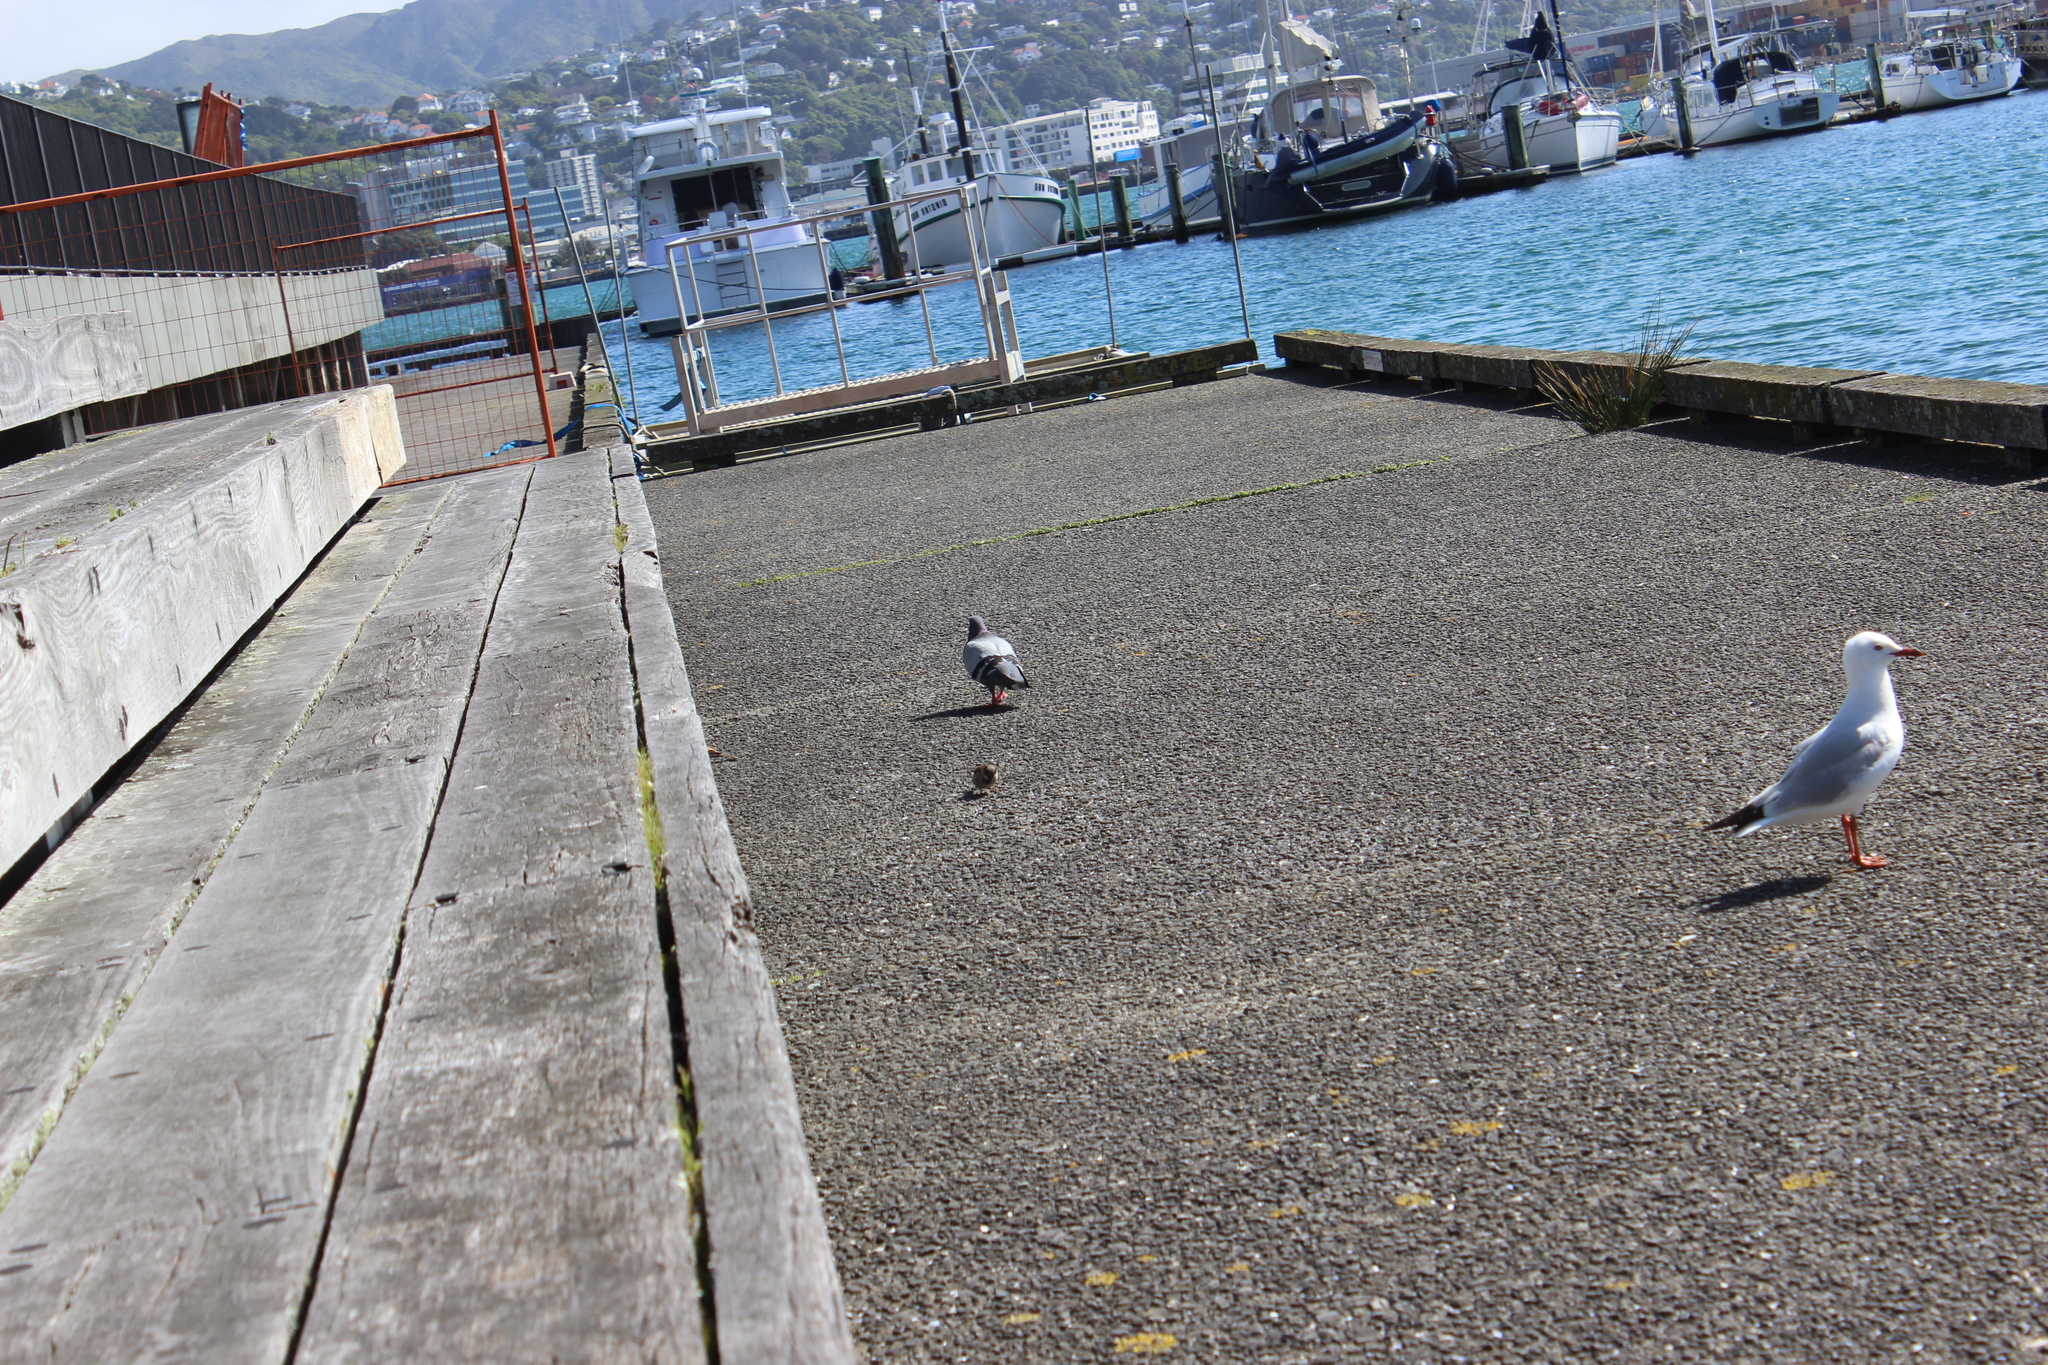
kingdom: Animalia
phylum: Chordata
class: Aves
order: Columbiformes
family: Columbidae
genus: Columba
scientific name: Columba livia
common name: Rock pigeon
